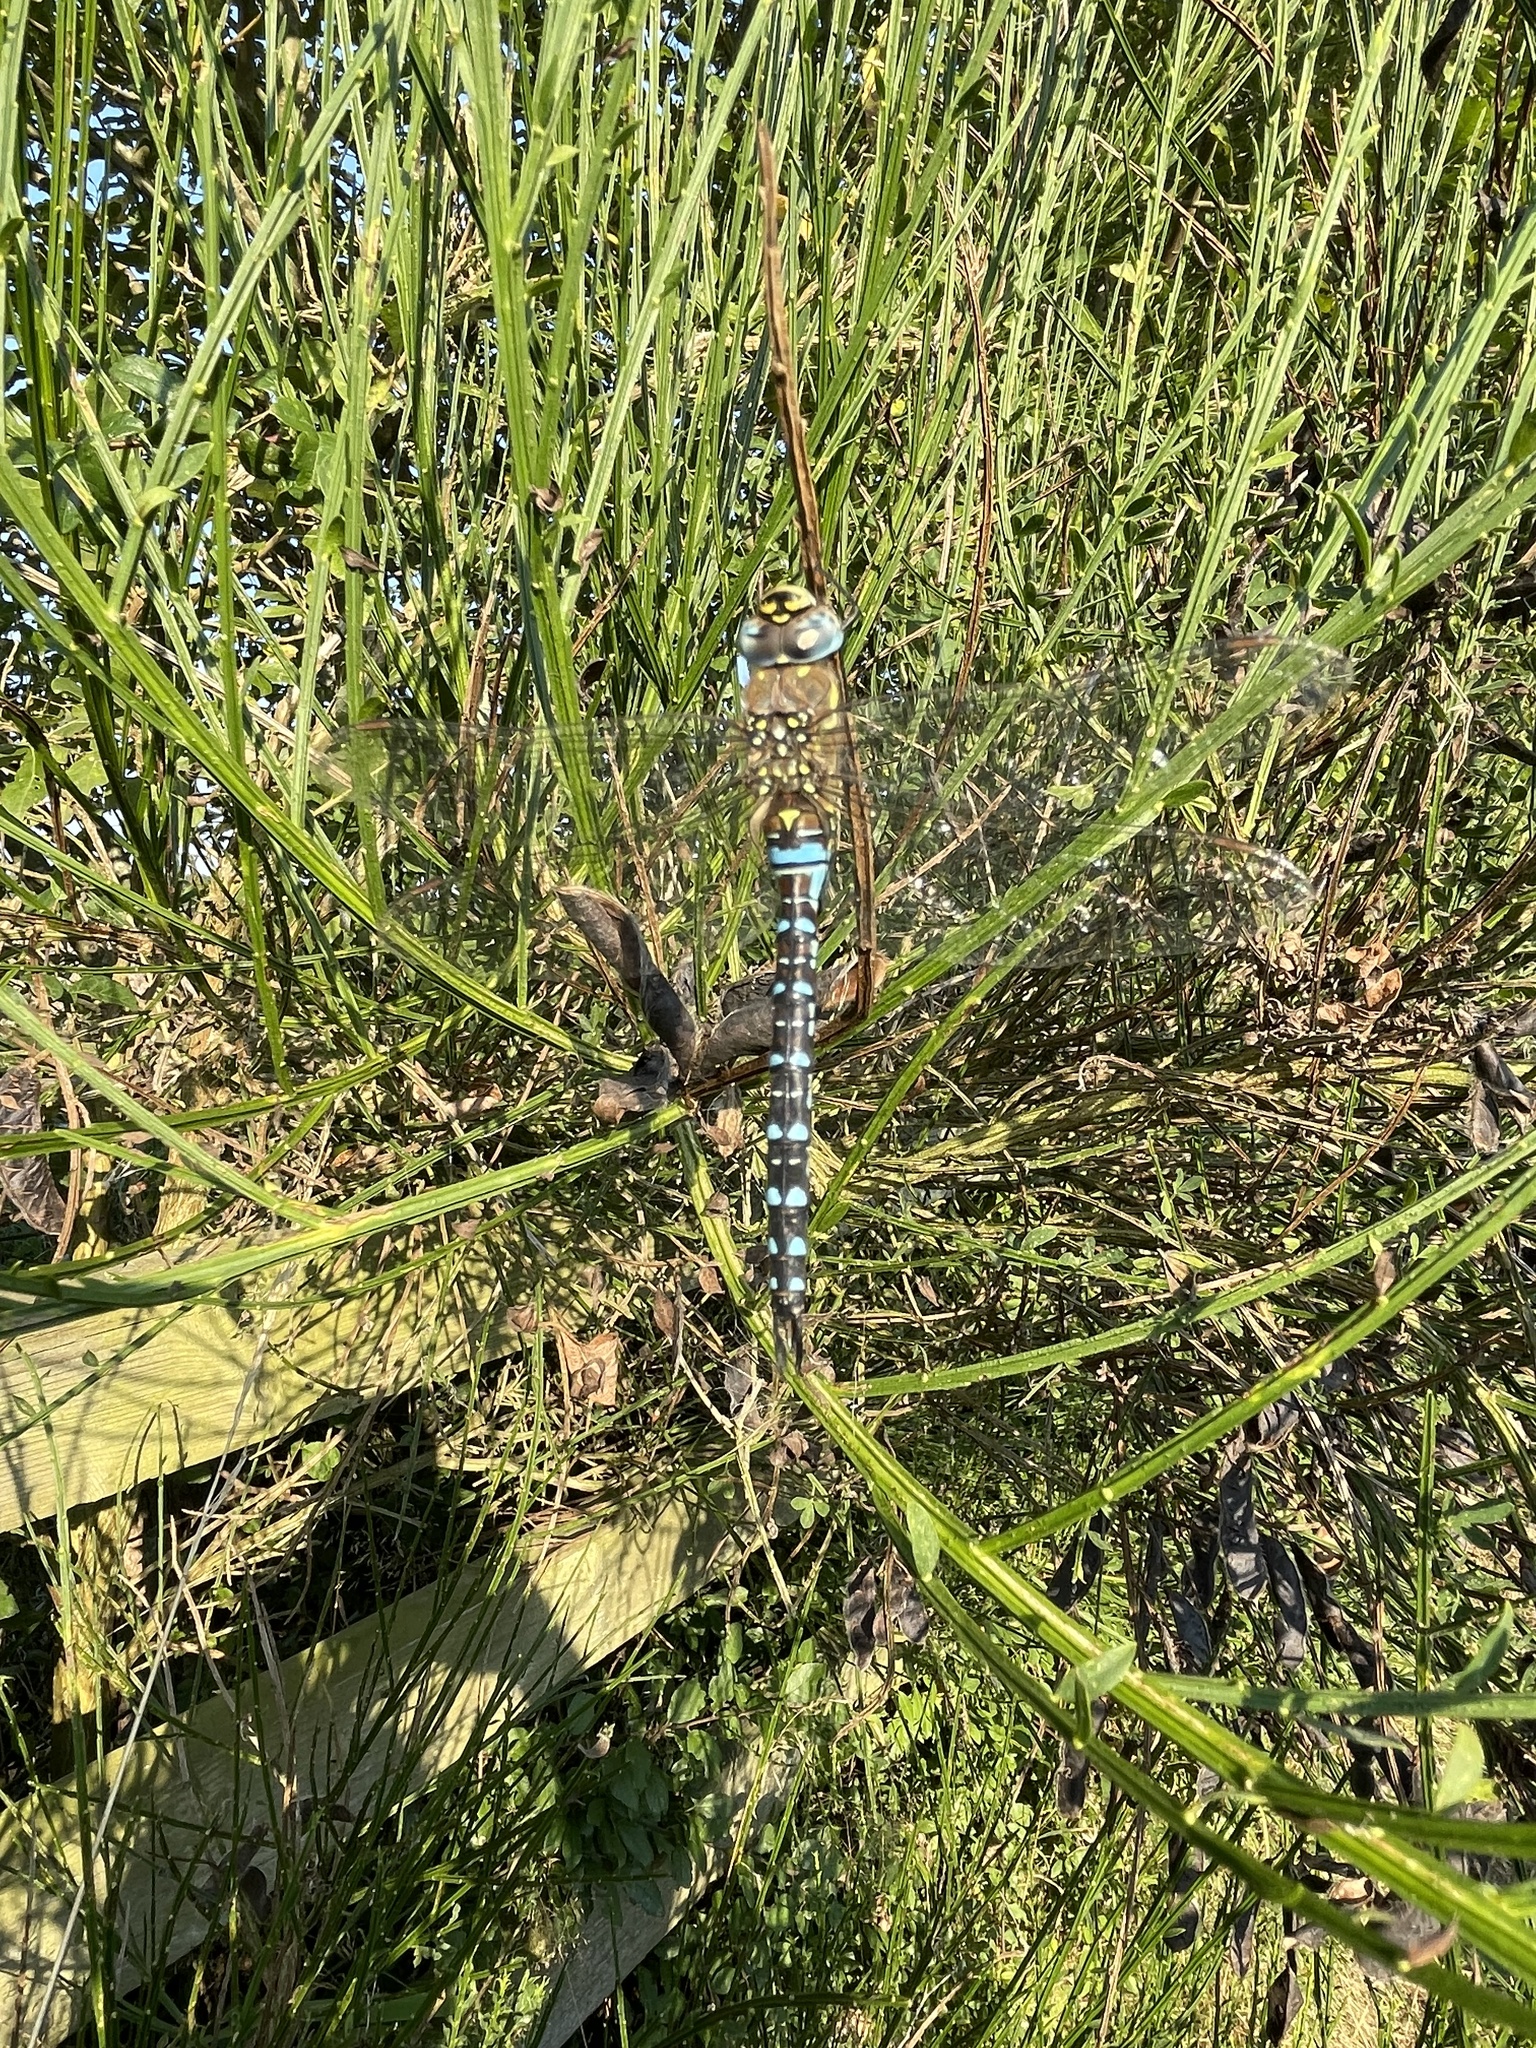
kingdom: Animalia
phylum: Arthropoda
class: Insecta
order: Odonata
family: Aeshnidae
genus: Aeshna
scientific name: Aeshna mixta
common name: Migrant hawker
